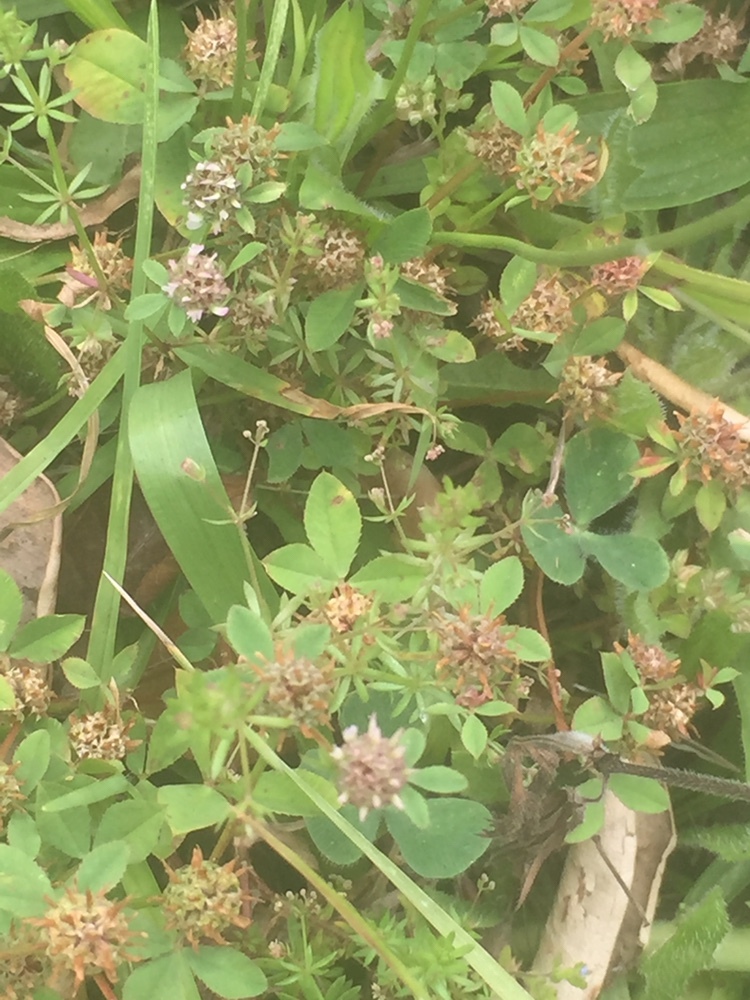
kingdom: Plantae
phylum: Tracheophyta
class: Magnoliopsida
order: Fabales
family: Fabaceae
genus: Trifolium
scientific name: Trifolium glomeratum
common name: Clustered clover
